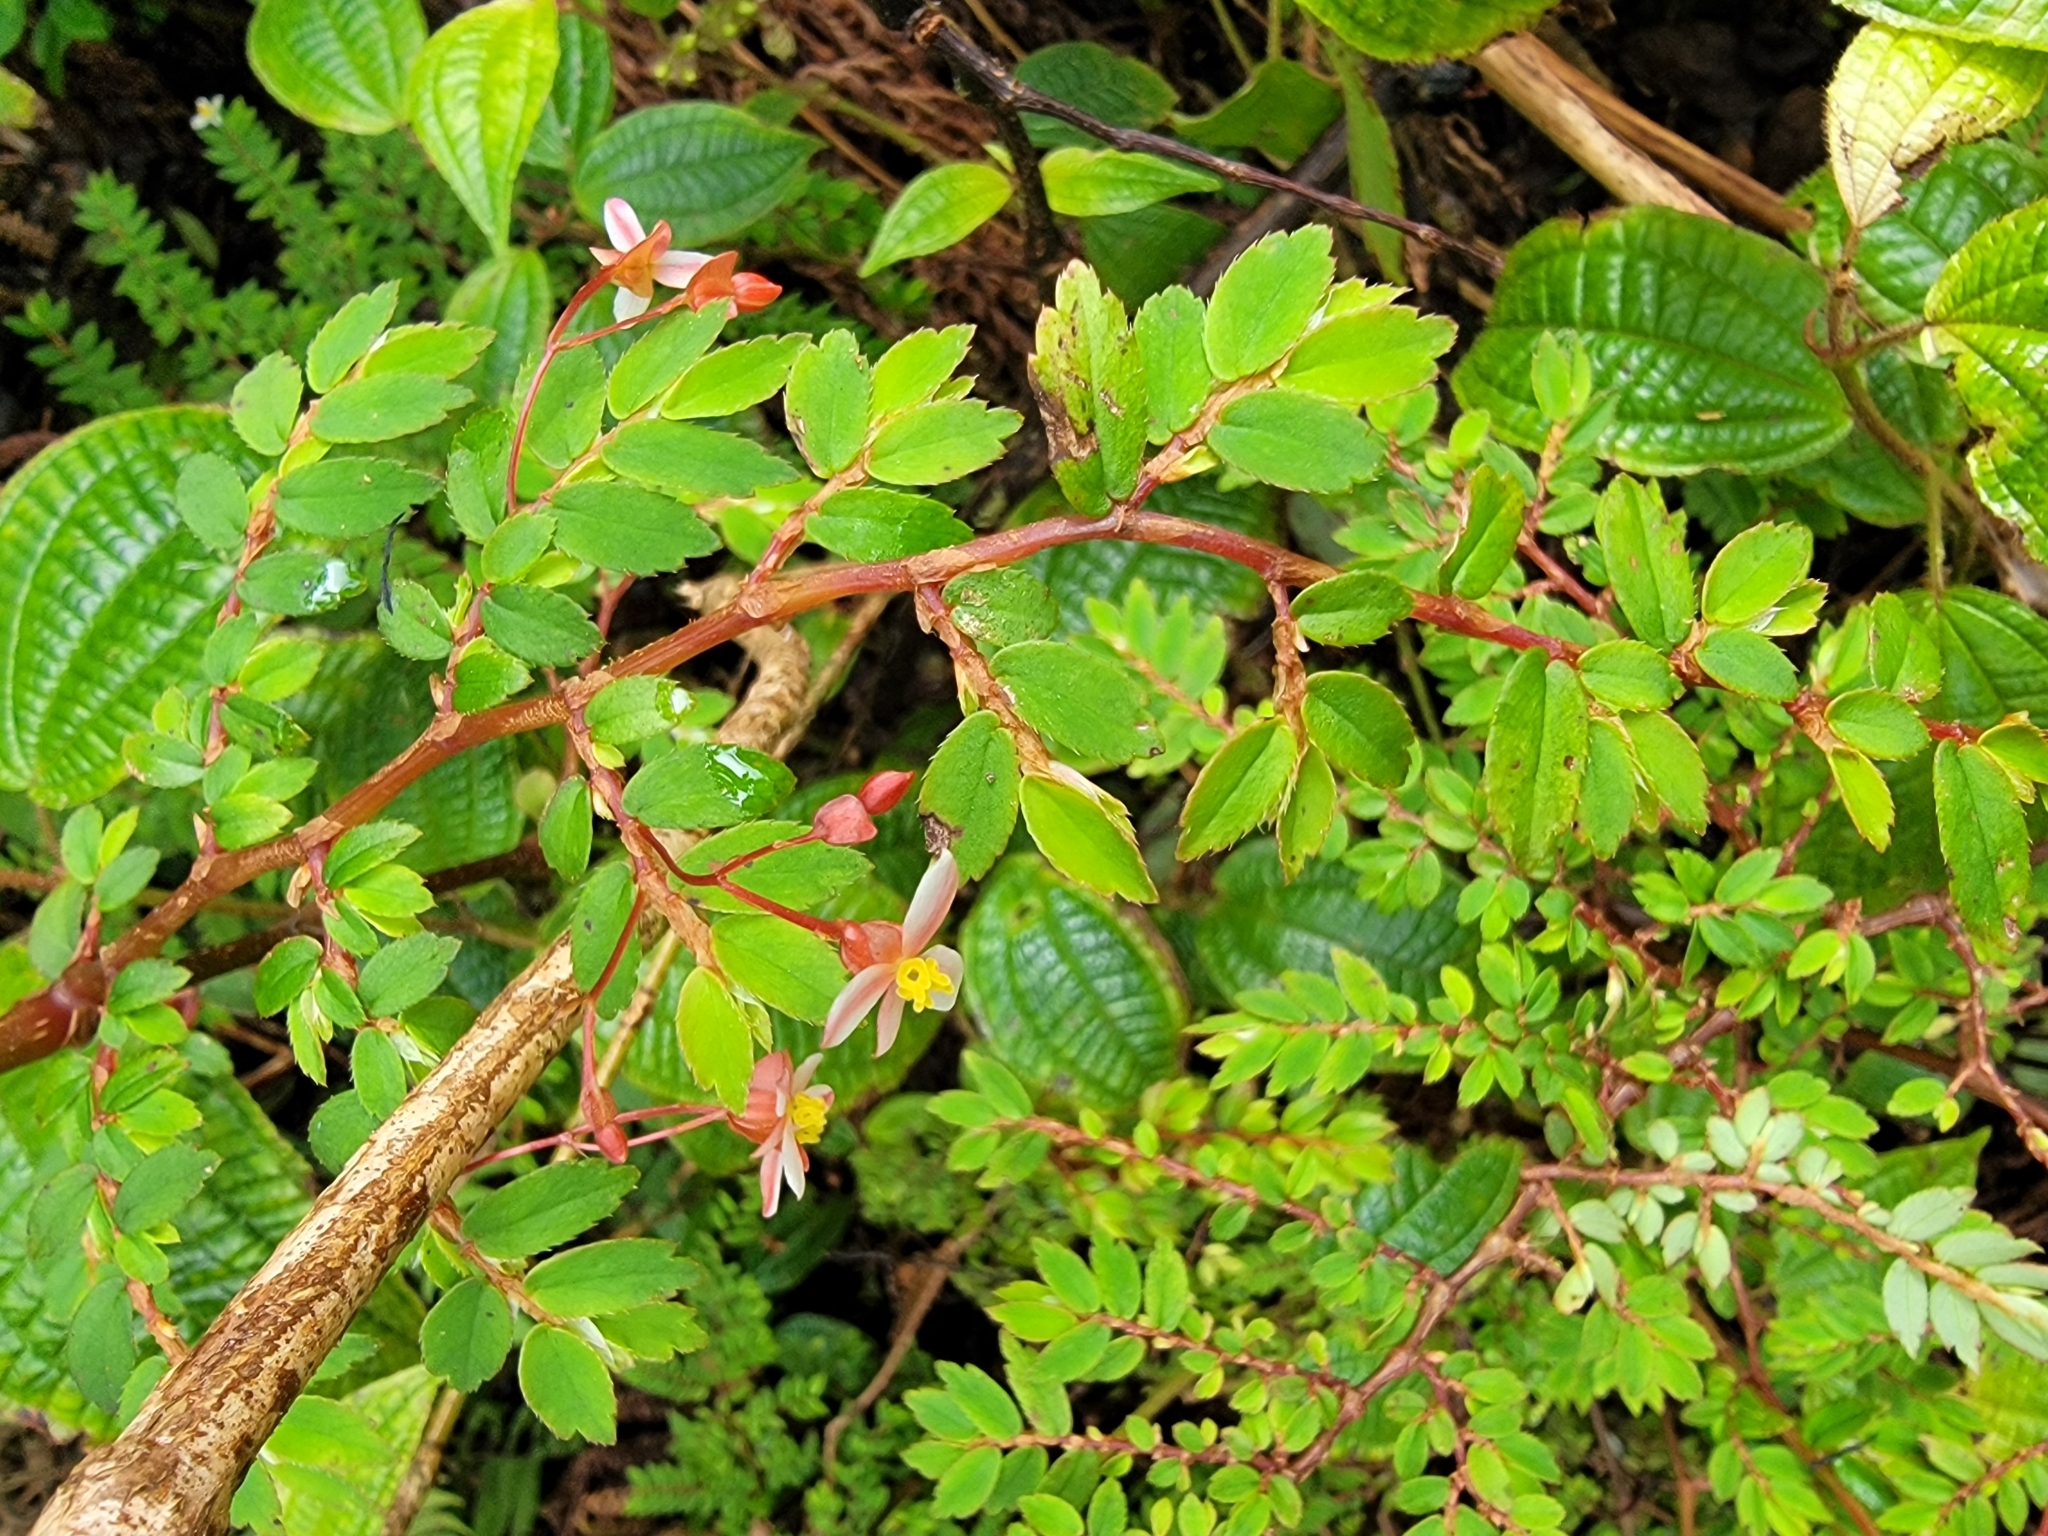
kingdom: Plantae
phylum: Tracheophyta
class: Magnoliopsida
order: Cucurbitales
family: Begoniaceae
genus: Begonia
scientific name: Begonia foliosa
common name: Fern begonia
